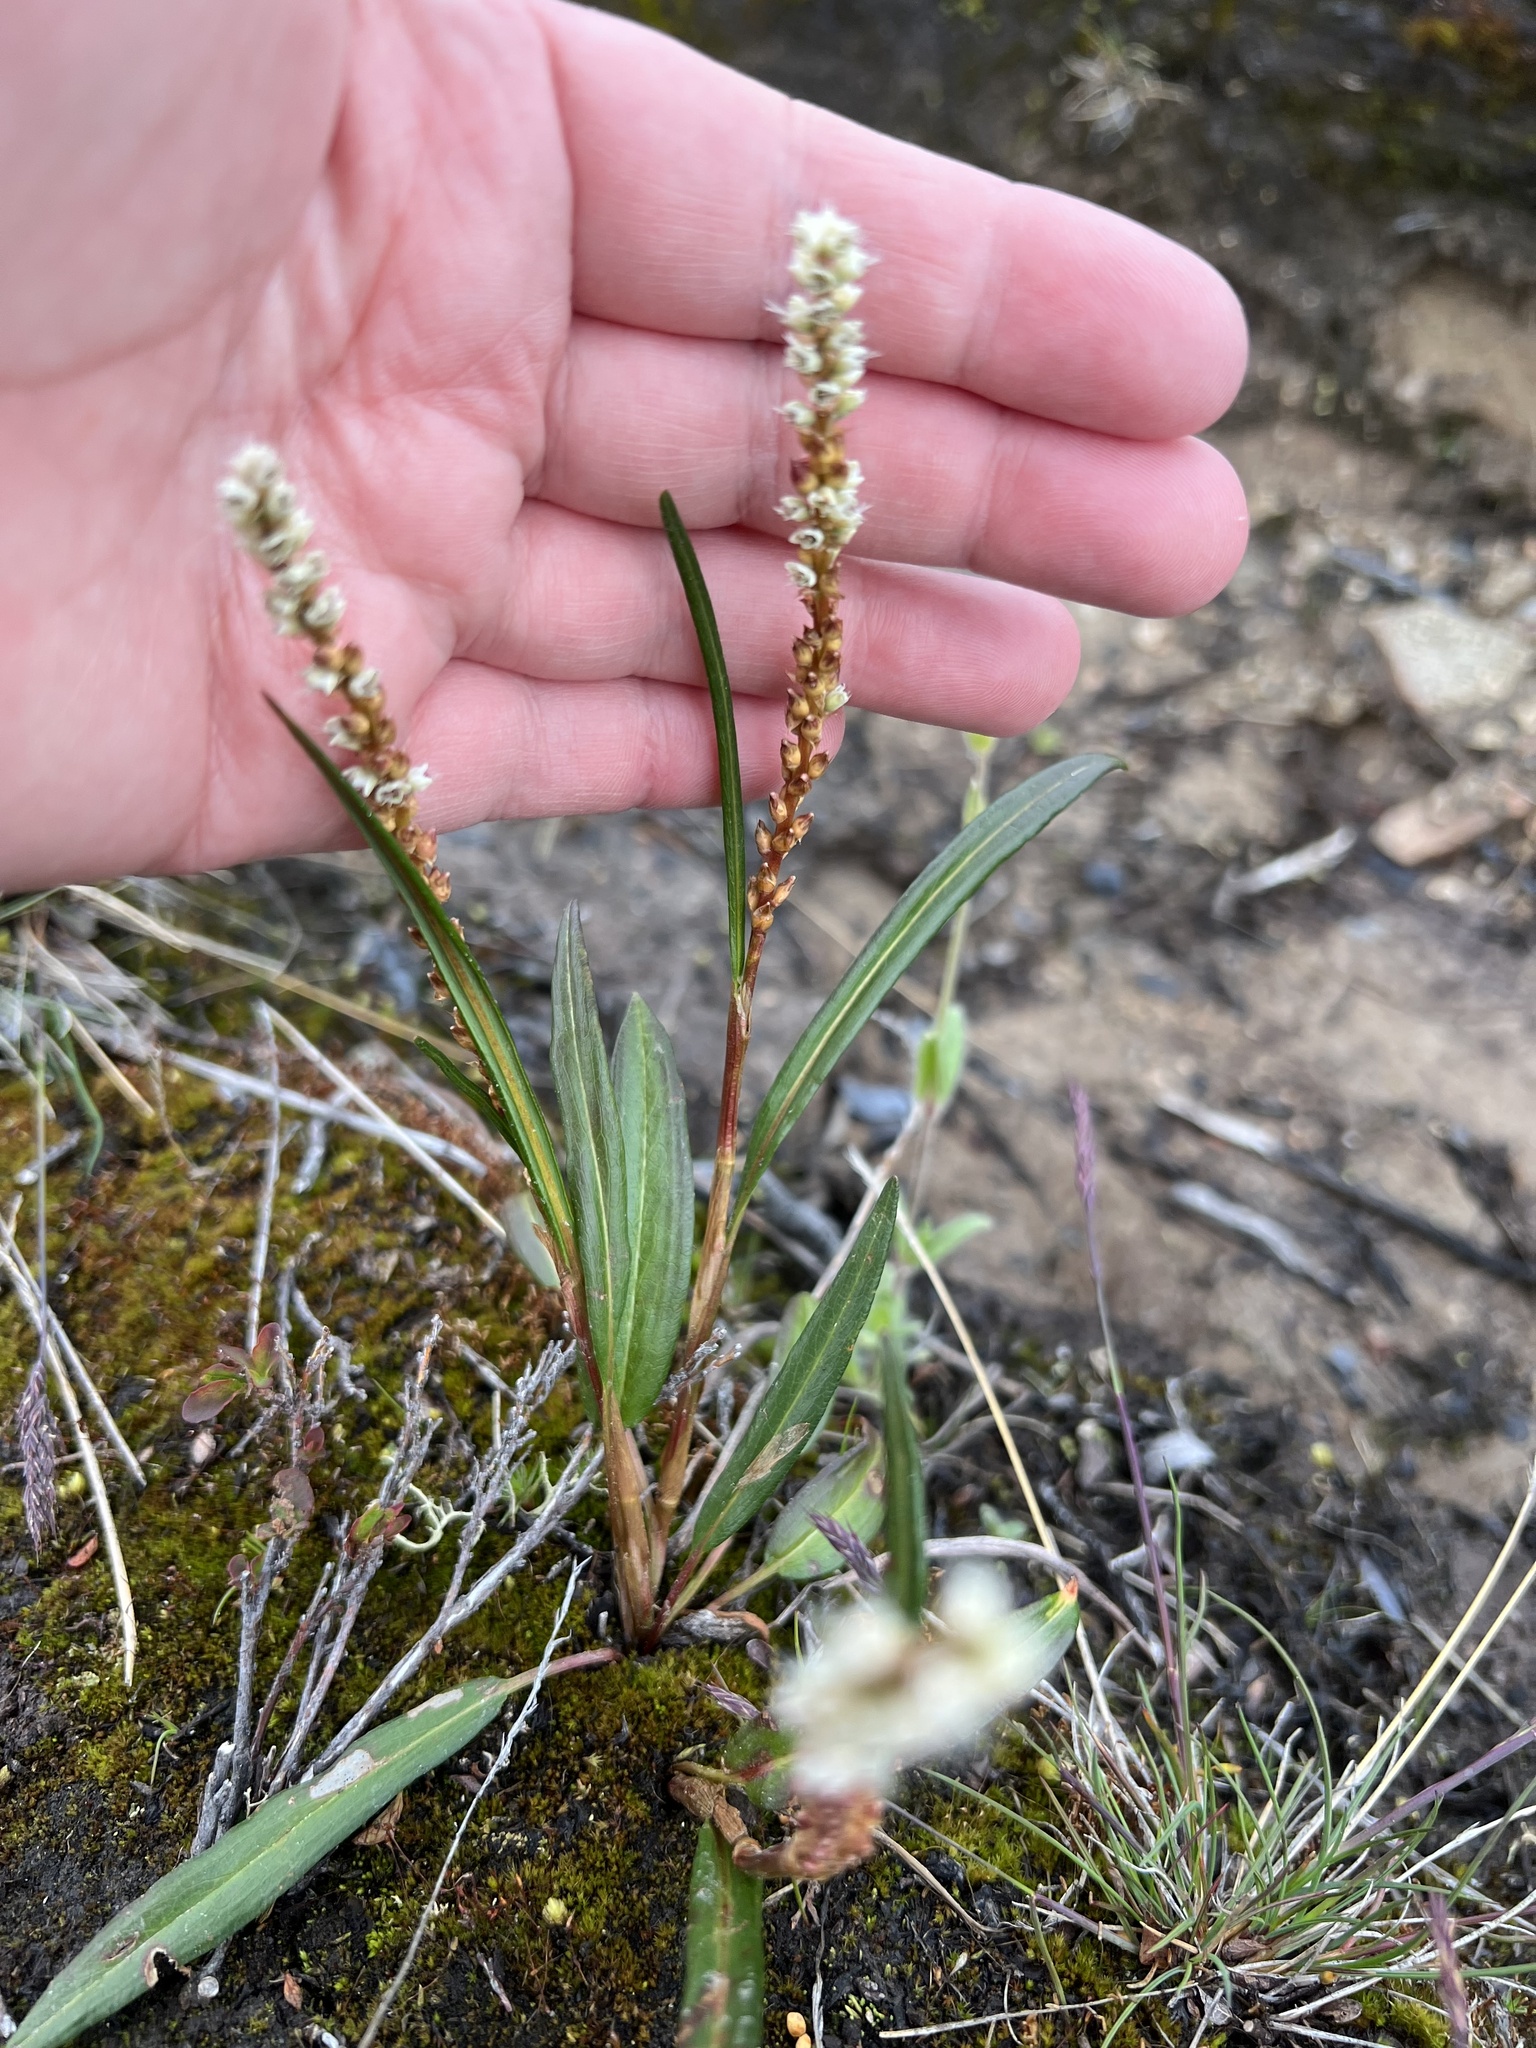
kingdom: Plantae
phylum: Tracheophyta
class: Magnoliopsida
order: Caryophyllales
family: Polygonaceae
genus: Bistorta
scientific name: Bistorta vivipara
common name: Alpine bistort
